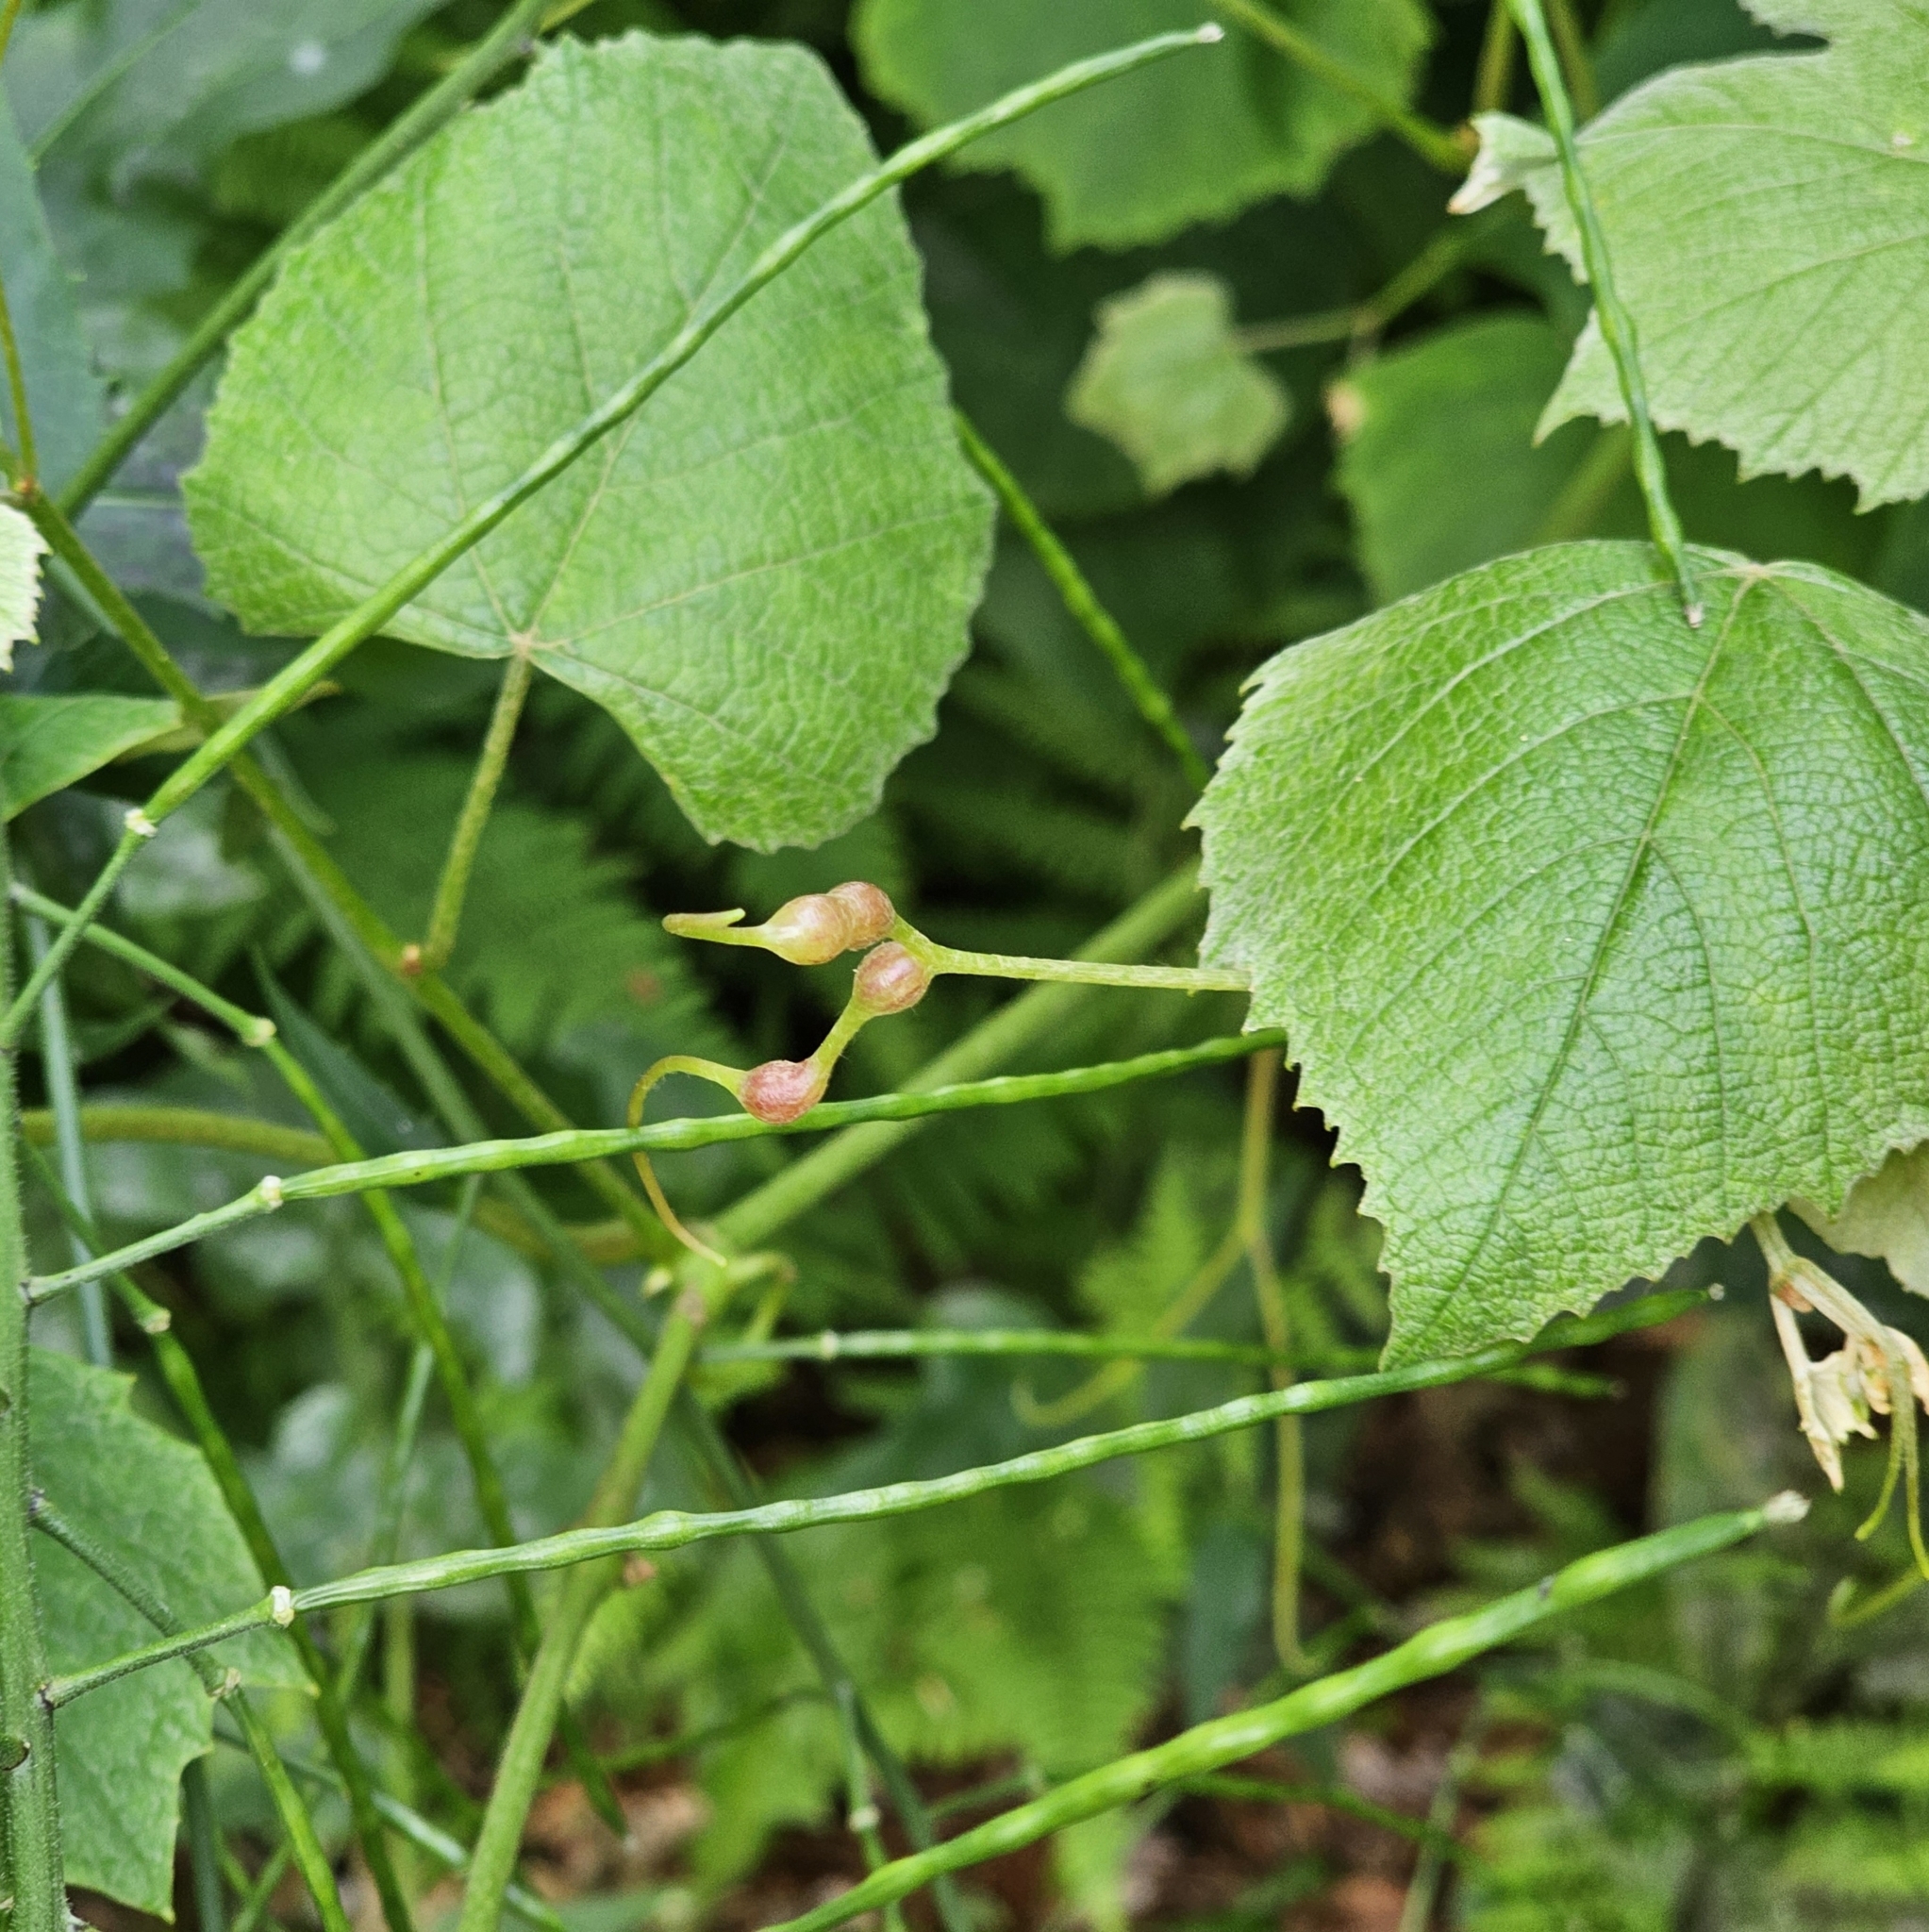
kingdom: Animalia
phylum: Arthropoda
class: Insecta
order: Diptera
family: Cecidomyiidae
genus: Vitisiella
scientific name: Vitisiella brevicauda
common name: Grape tumid gallmaker midge
